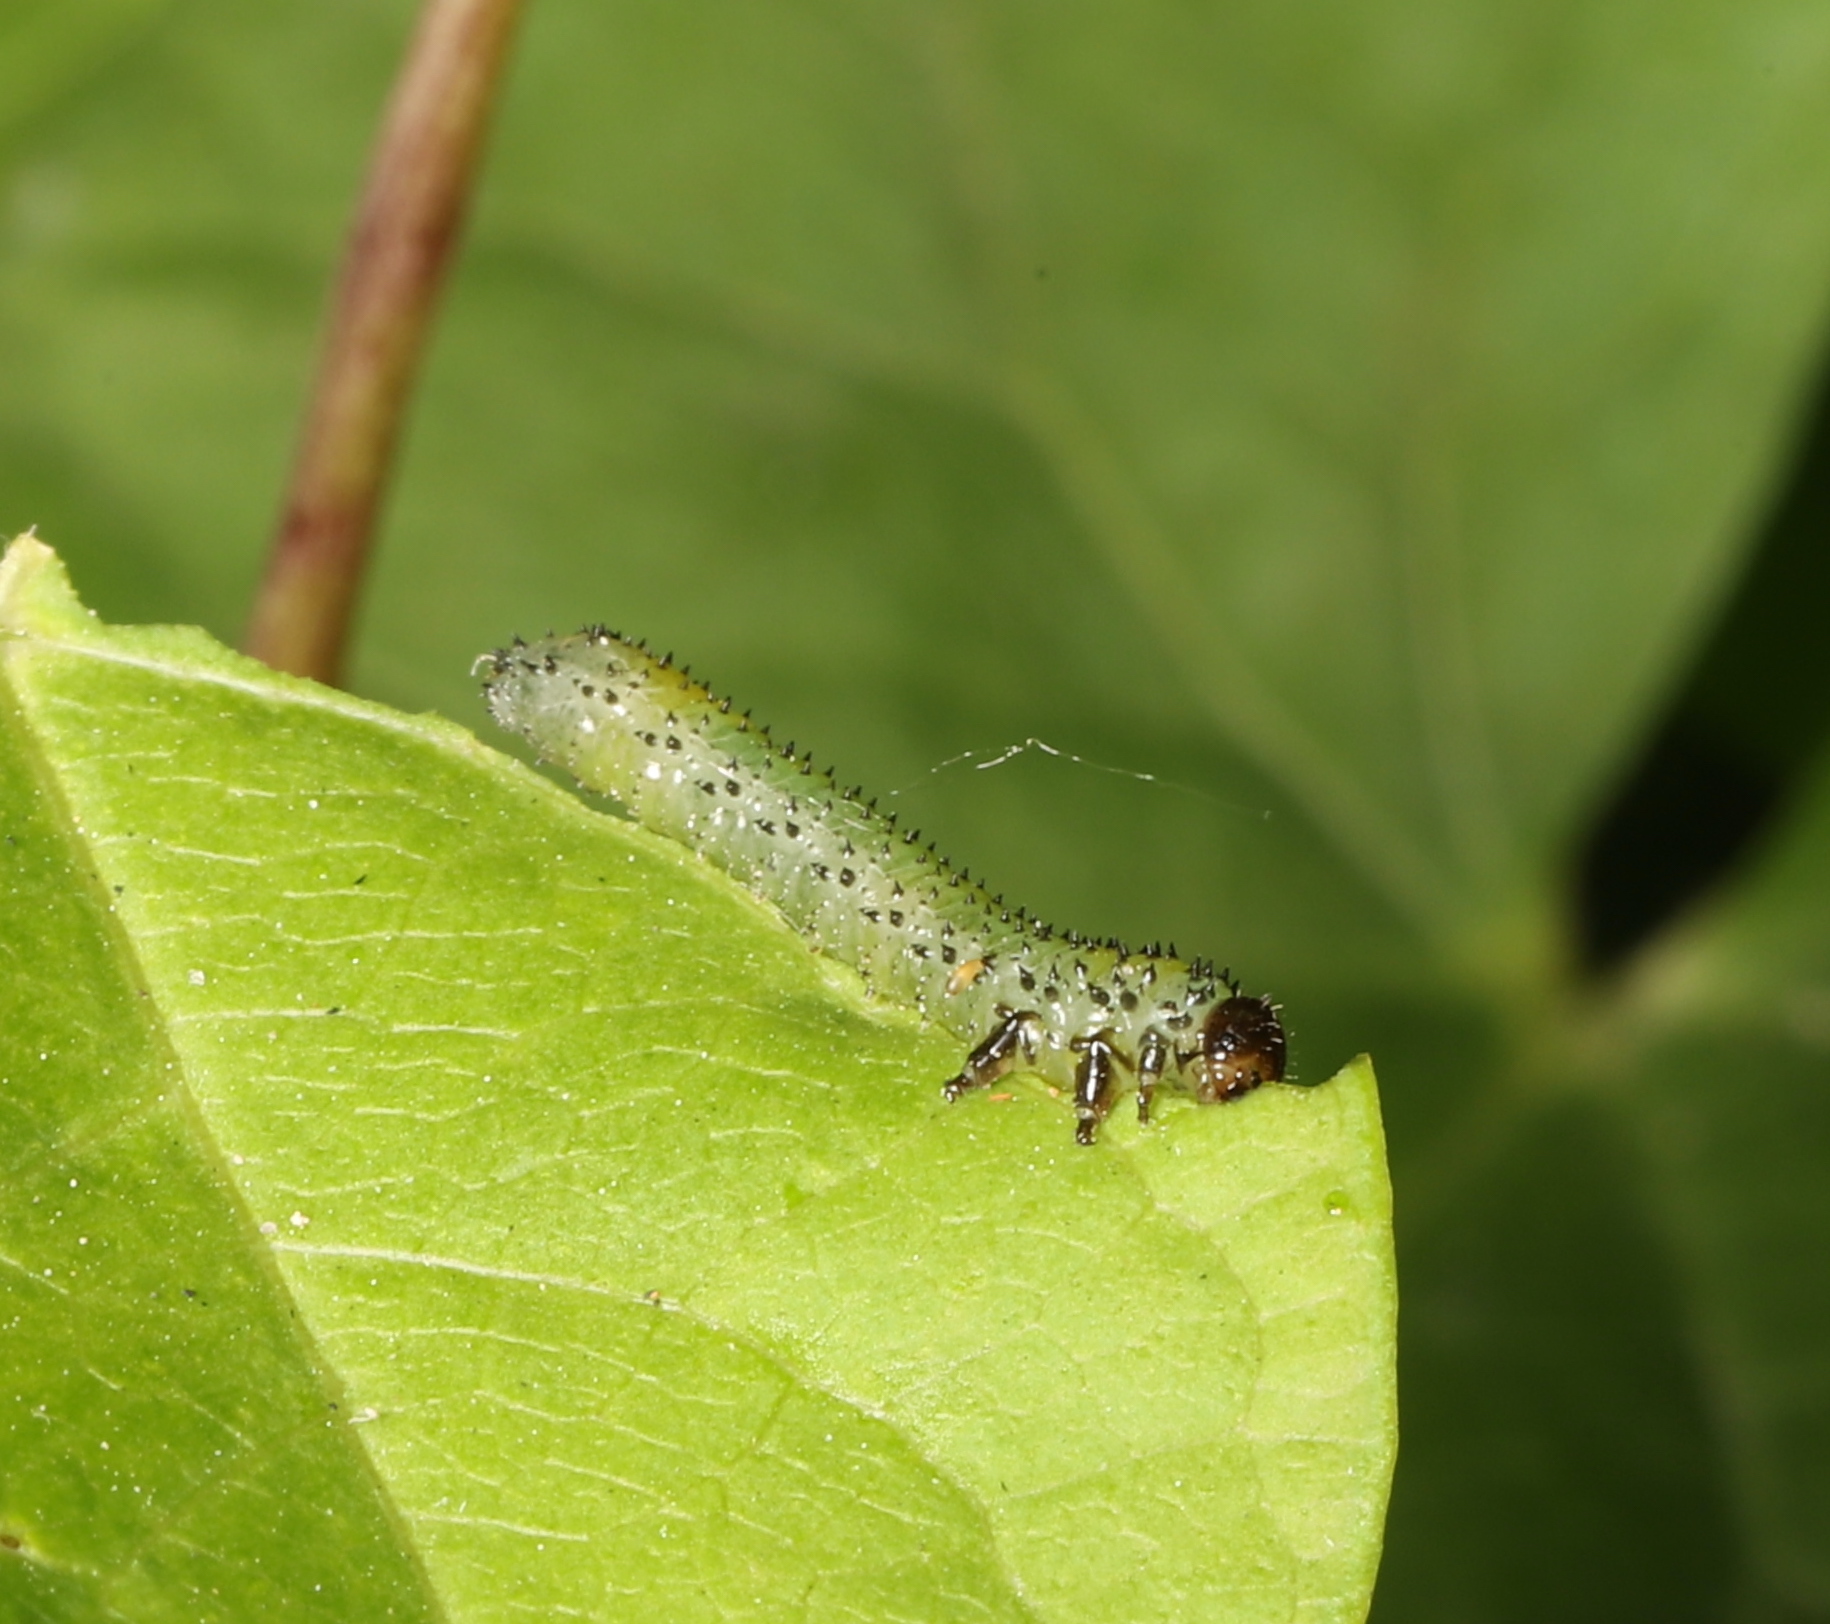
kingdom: Animalia
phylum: Arthropoda
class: Insecta
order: Hymenoptera
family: Argidae
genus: Sphacophilus
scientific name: Sphacophilus cellularis
